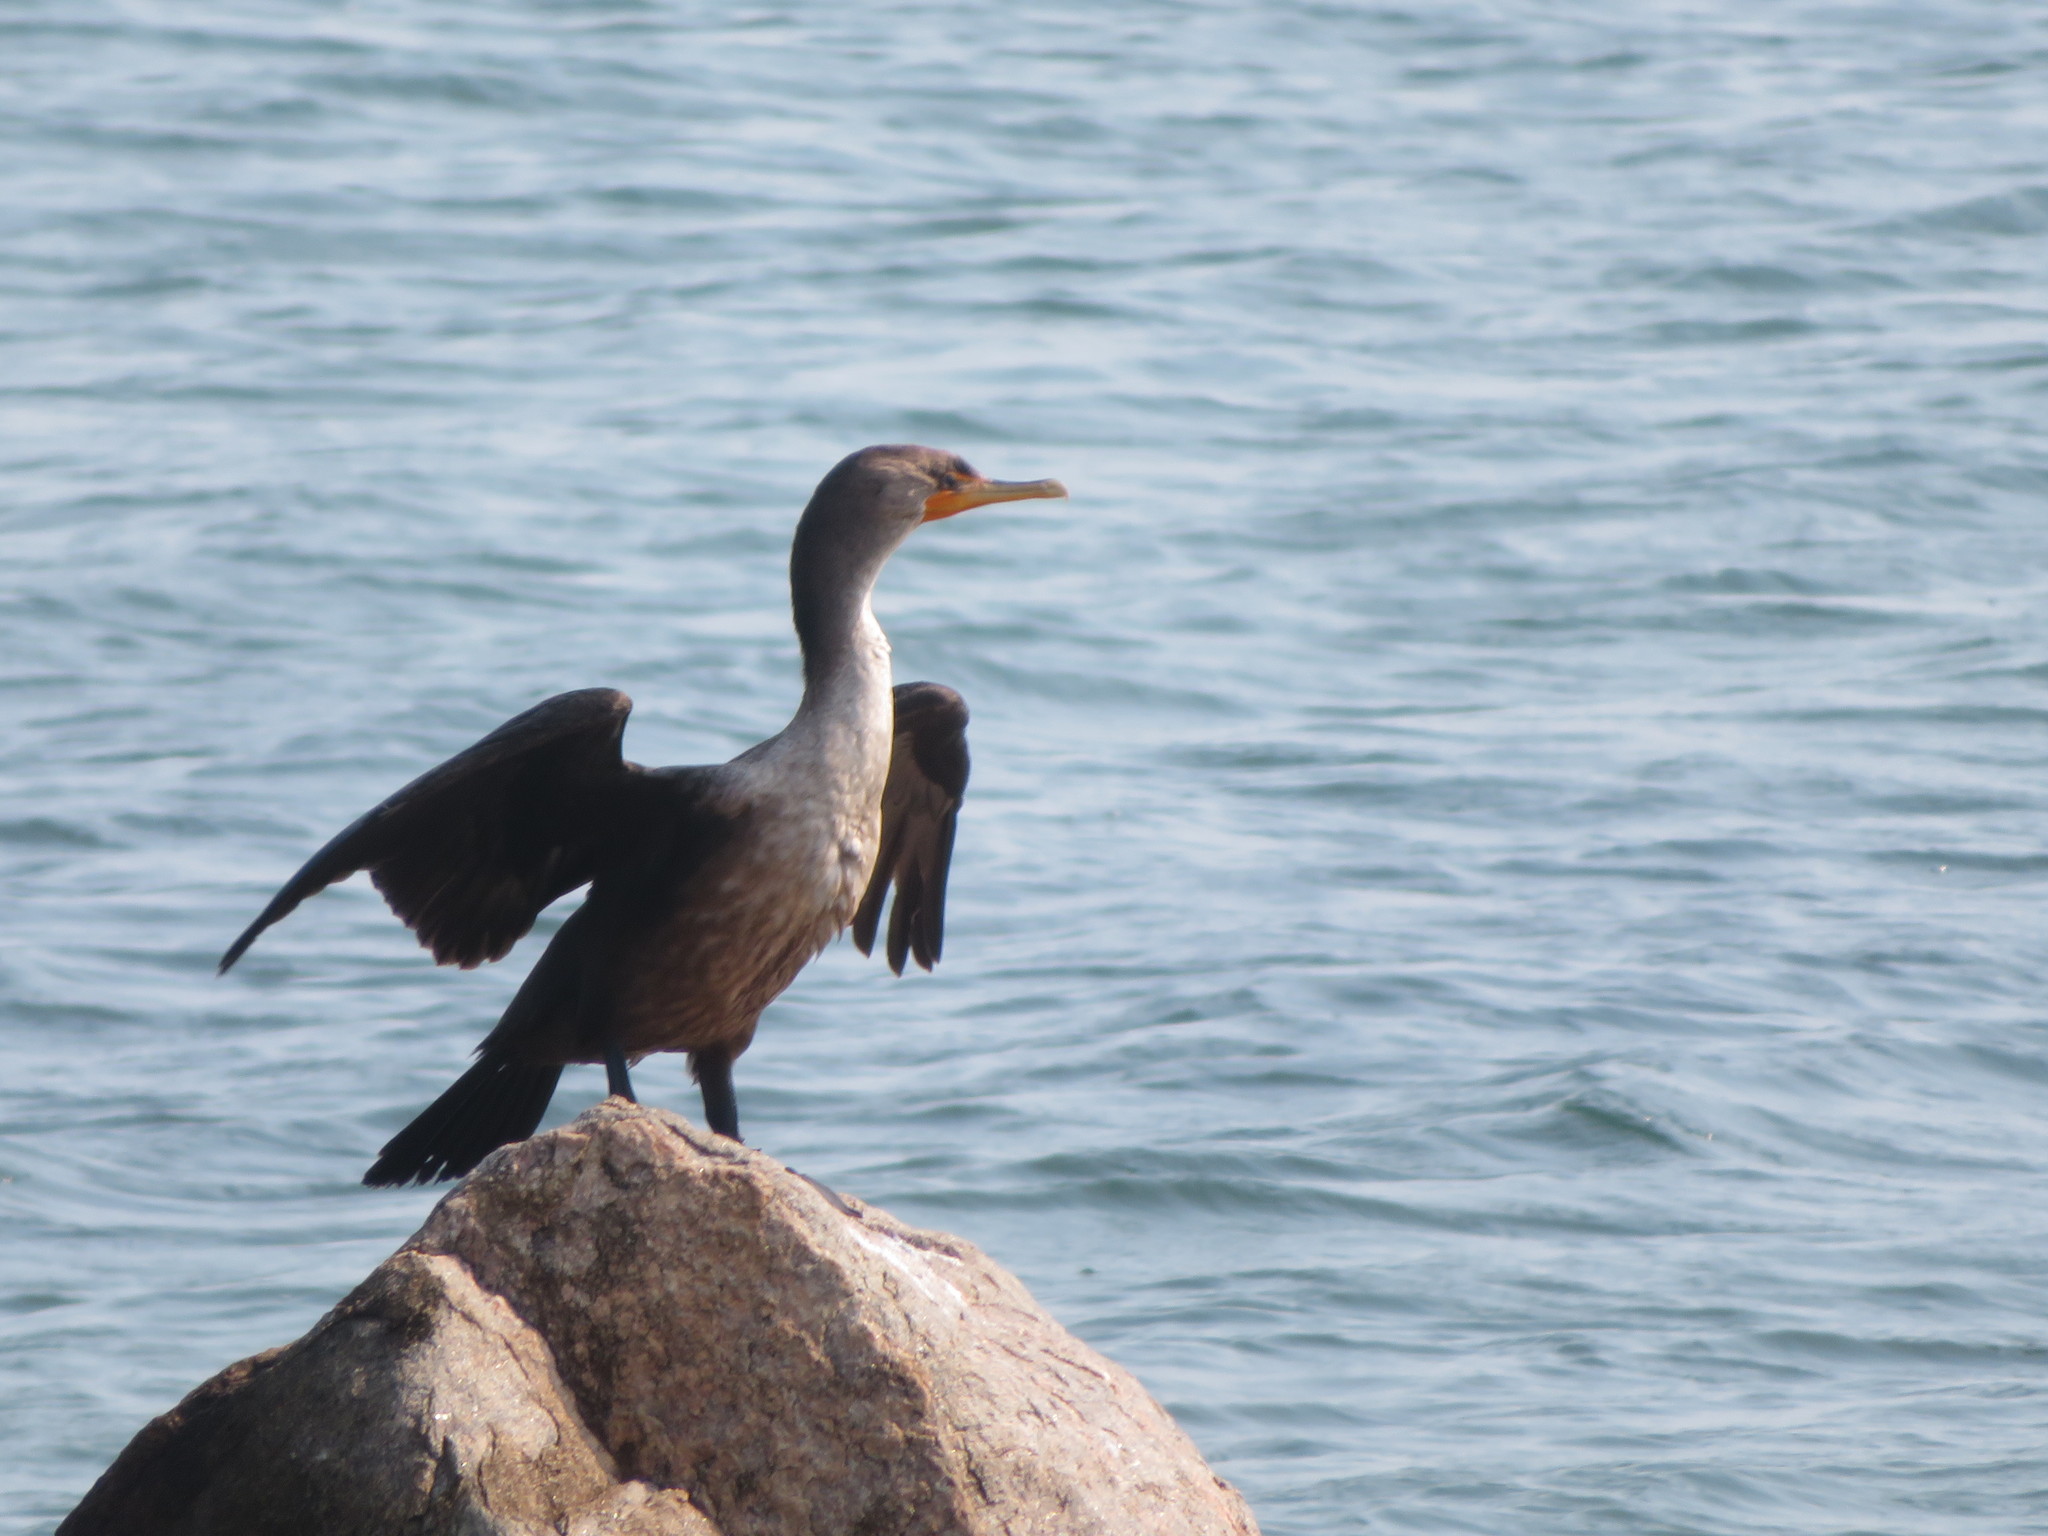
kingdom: Animalia
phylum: Chordata
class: Aves
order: Suliformes
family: Phalacrocoracidae
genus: Phalacrocorax
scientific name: Phalacrocorax auritus
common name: Double-crested cormorant
